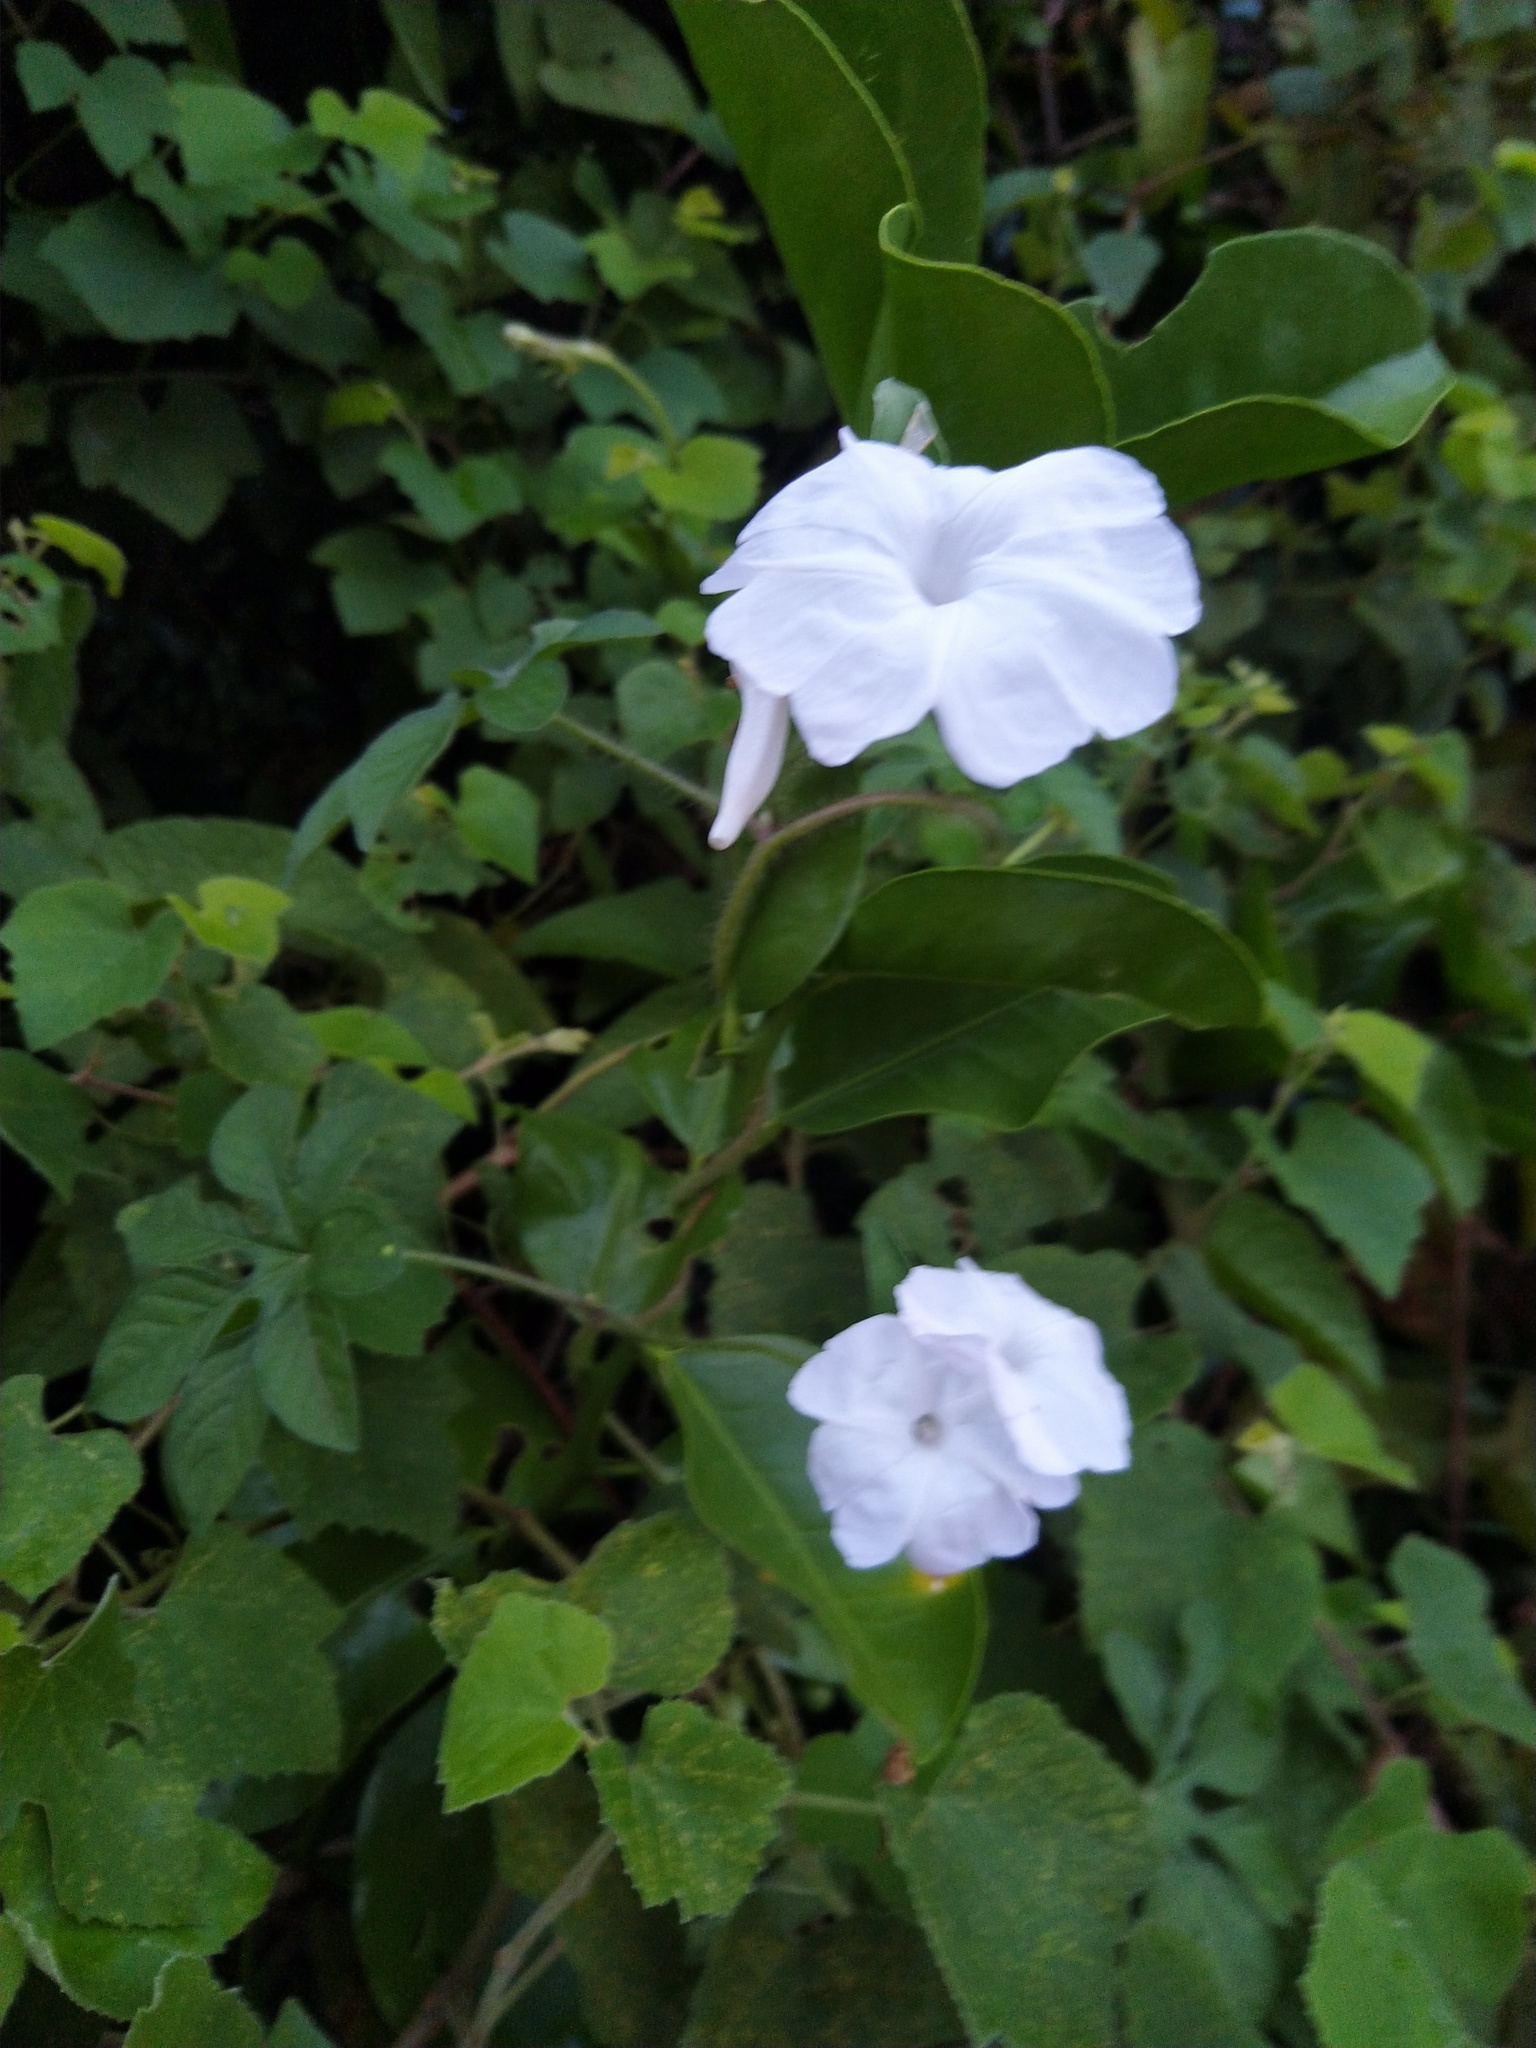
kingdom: Plantae
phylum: Tracheophyta
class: Magnoliopsida
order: Solanales
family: Convolvulaceae
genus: Ipomoea
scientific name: Ipomoea pes-tigridis
